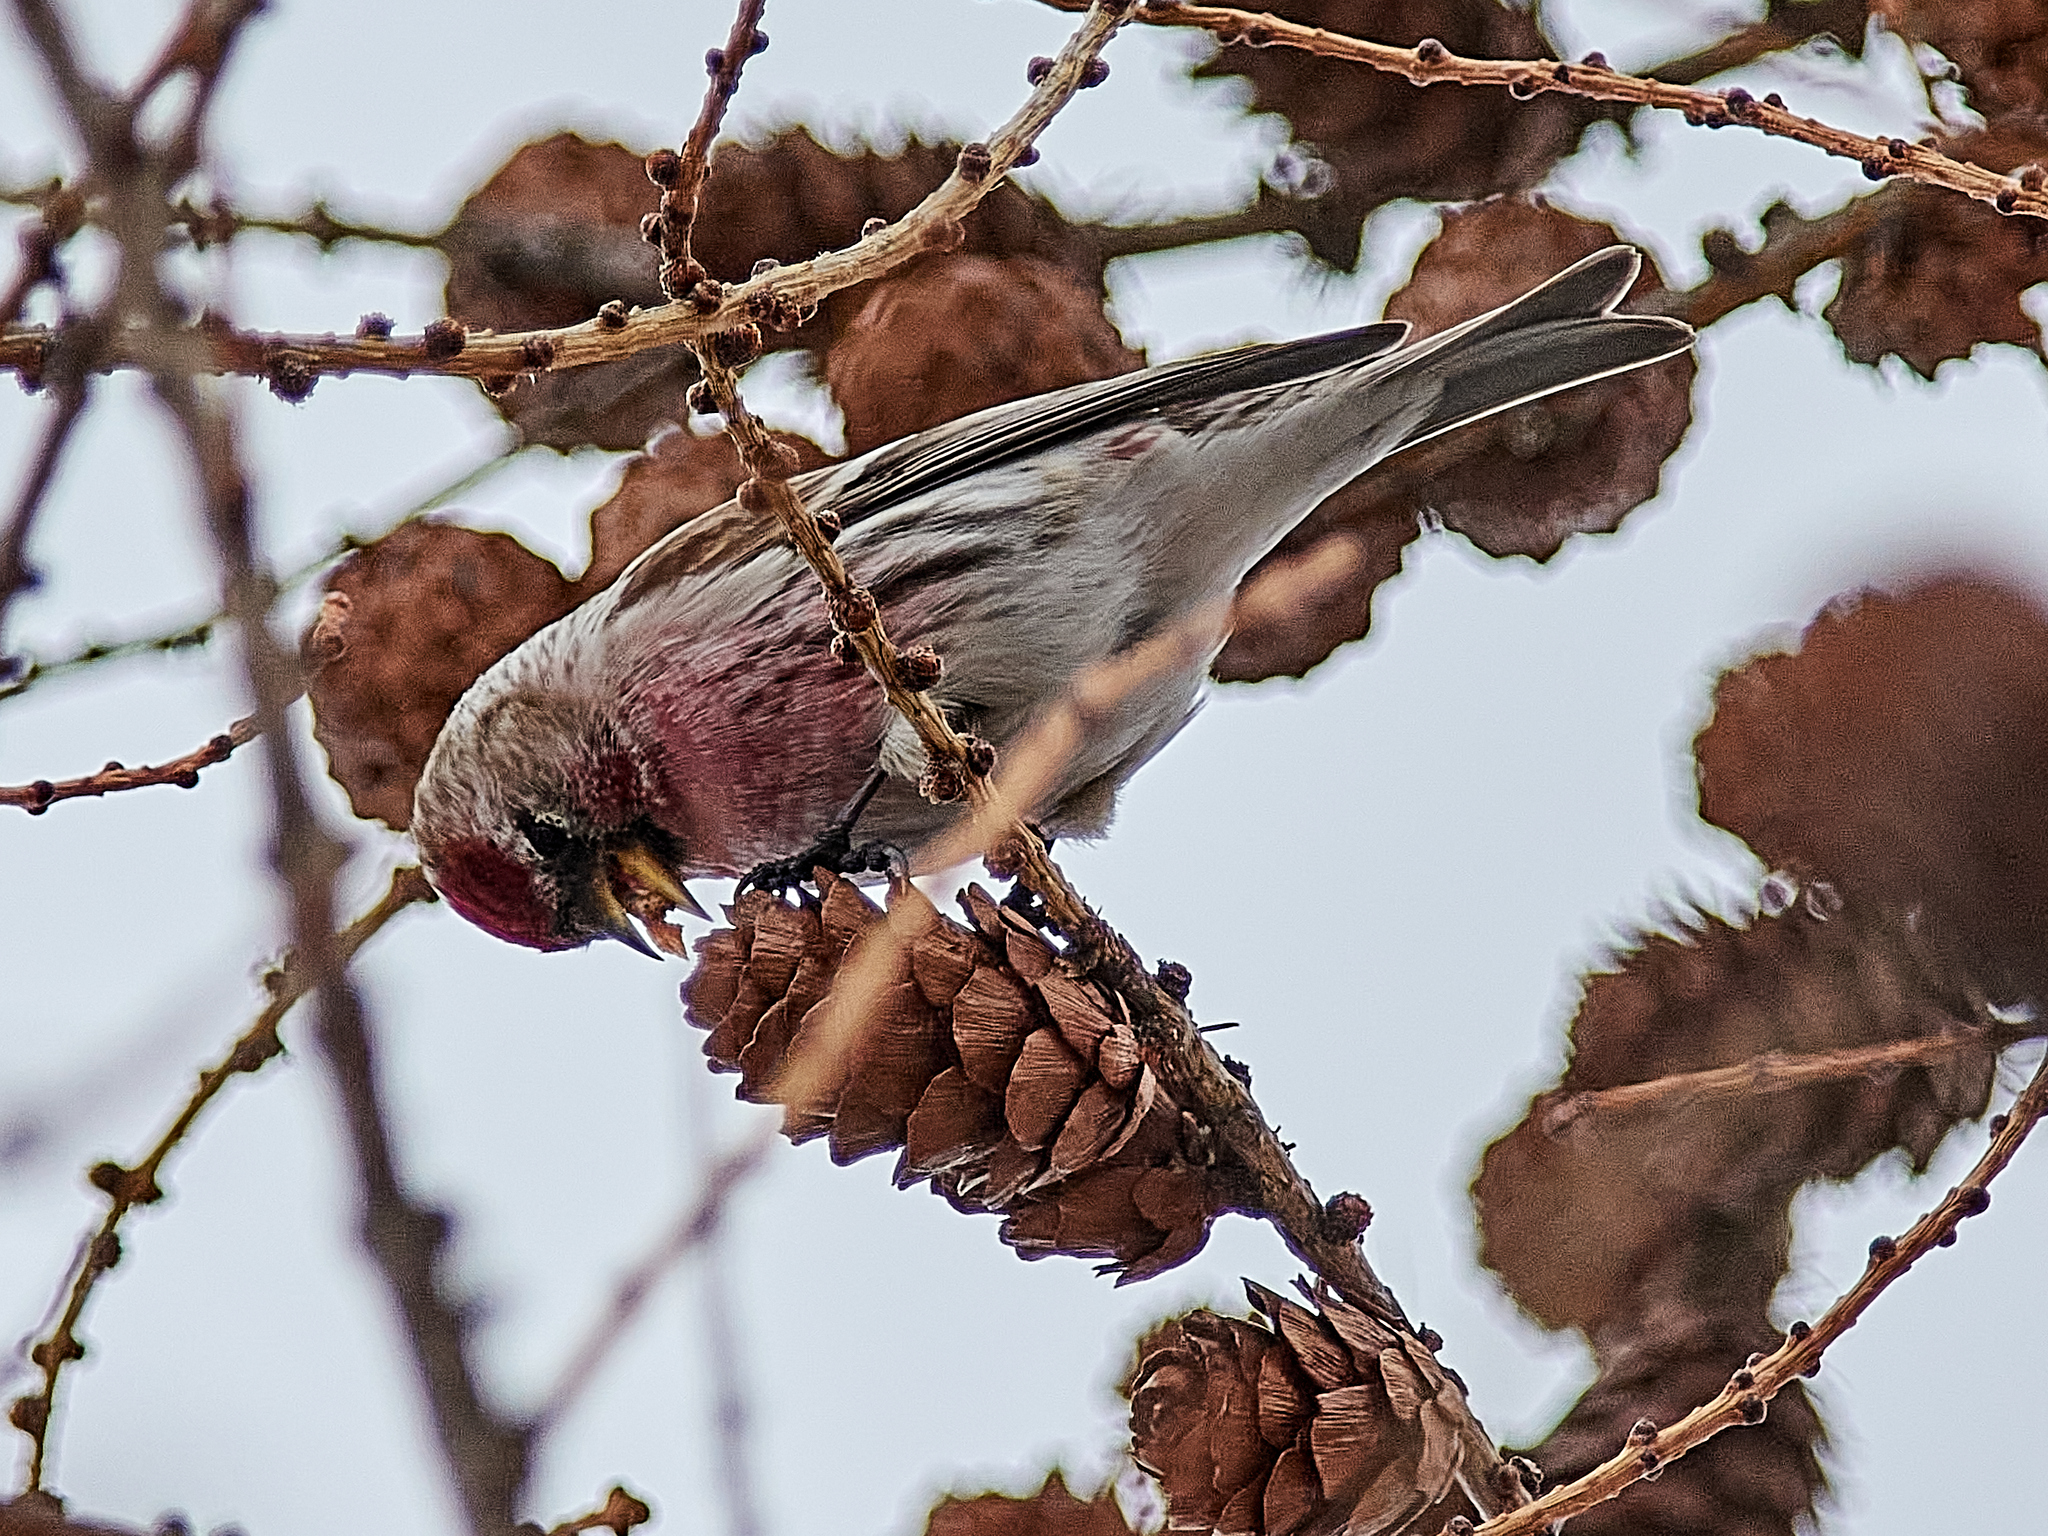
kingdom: Animalia
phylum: Chordata
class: Aves
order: Passeriformes
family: Fringillidae
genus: Acanthis
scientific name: Acanthis flammea
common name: Common redpoll
